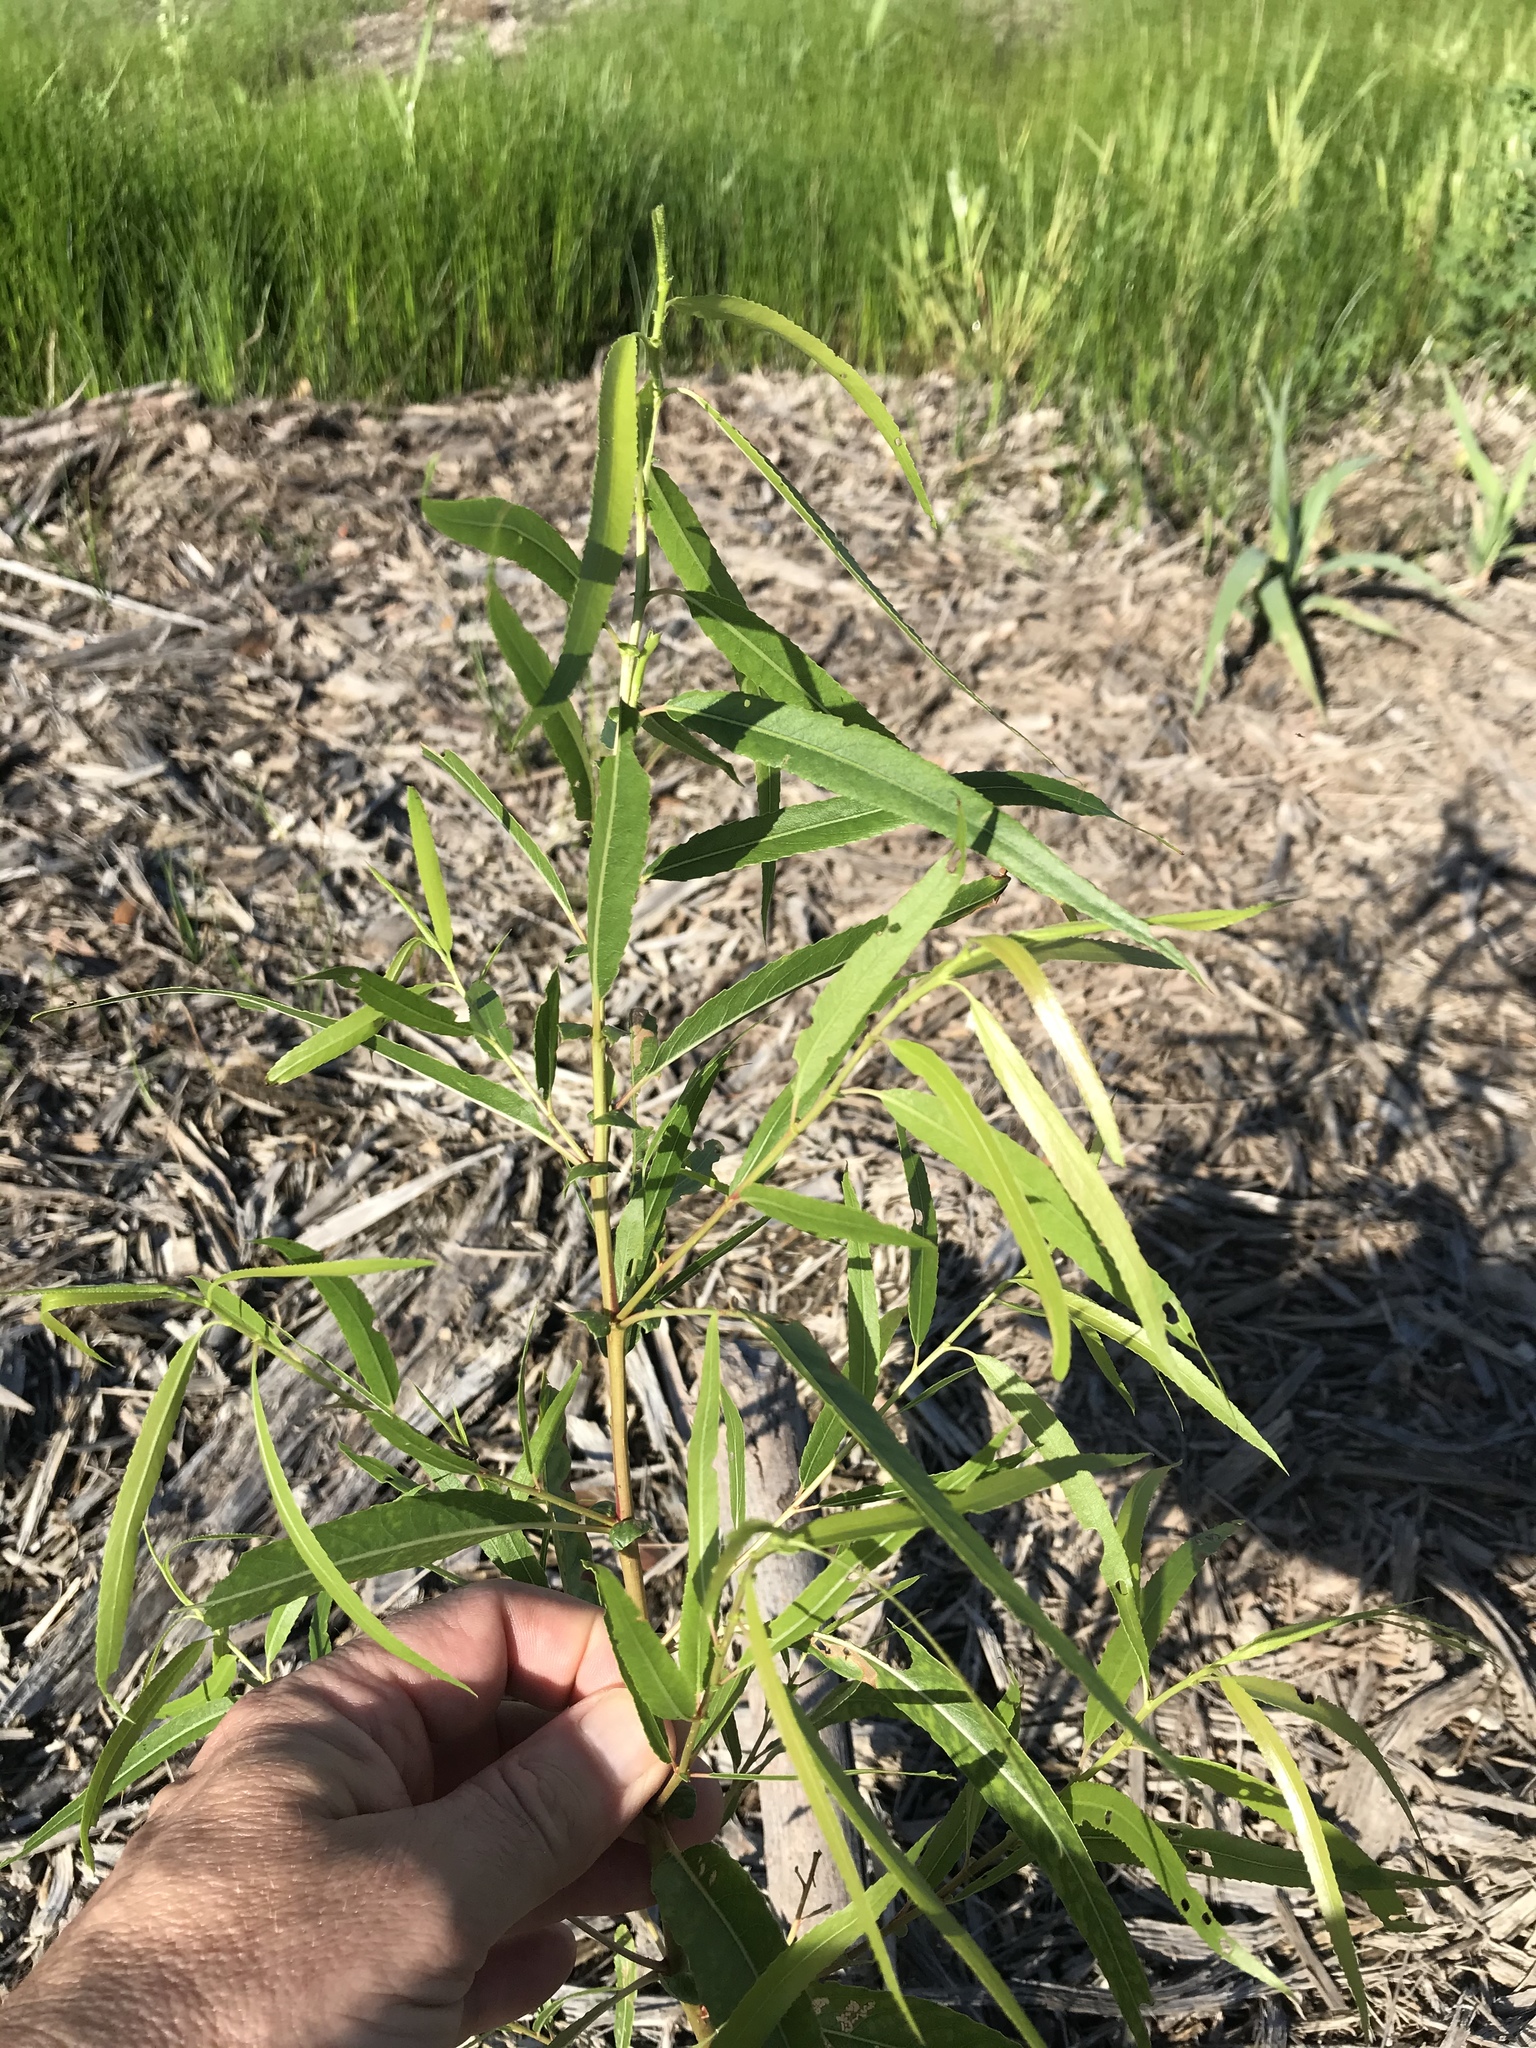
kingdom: Plantae
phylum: Tracheophyta
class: Magnoliopsida
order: Malpighiales
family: Salicaceae
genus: Salix
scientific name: Salix nigra
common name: Black willow
